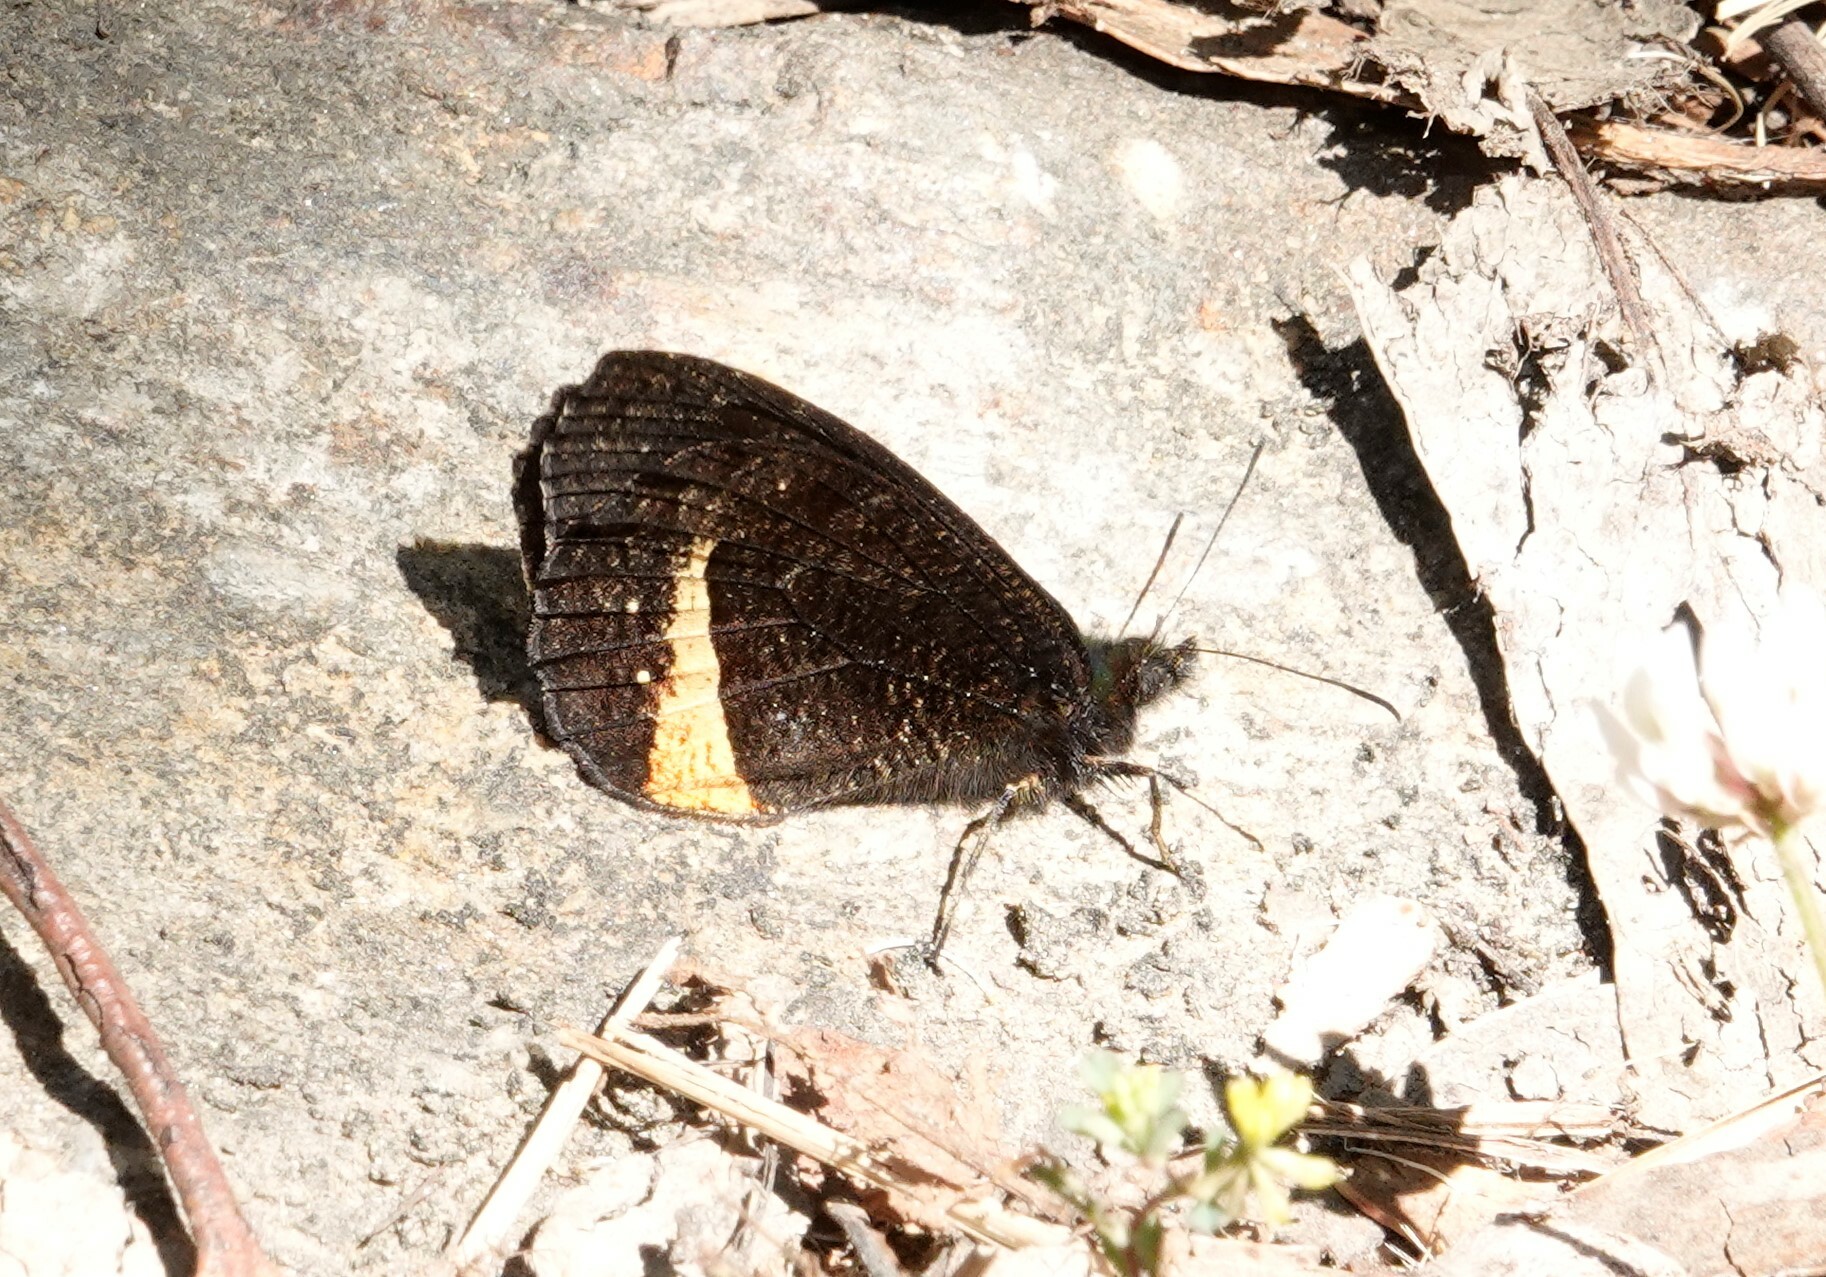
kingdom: Animalia
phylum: Arthropoda
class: Insecta
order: Lepidoptera
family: Nymphalidae
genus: Pedaliodes
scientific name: Pedaliodes tyrrheus
